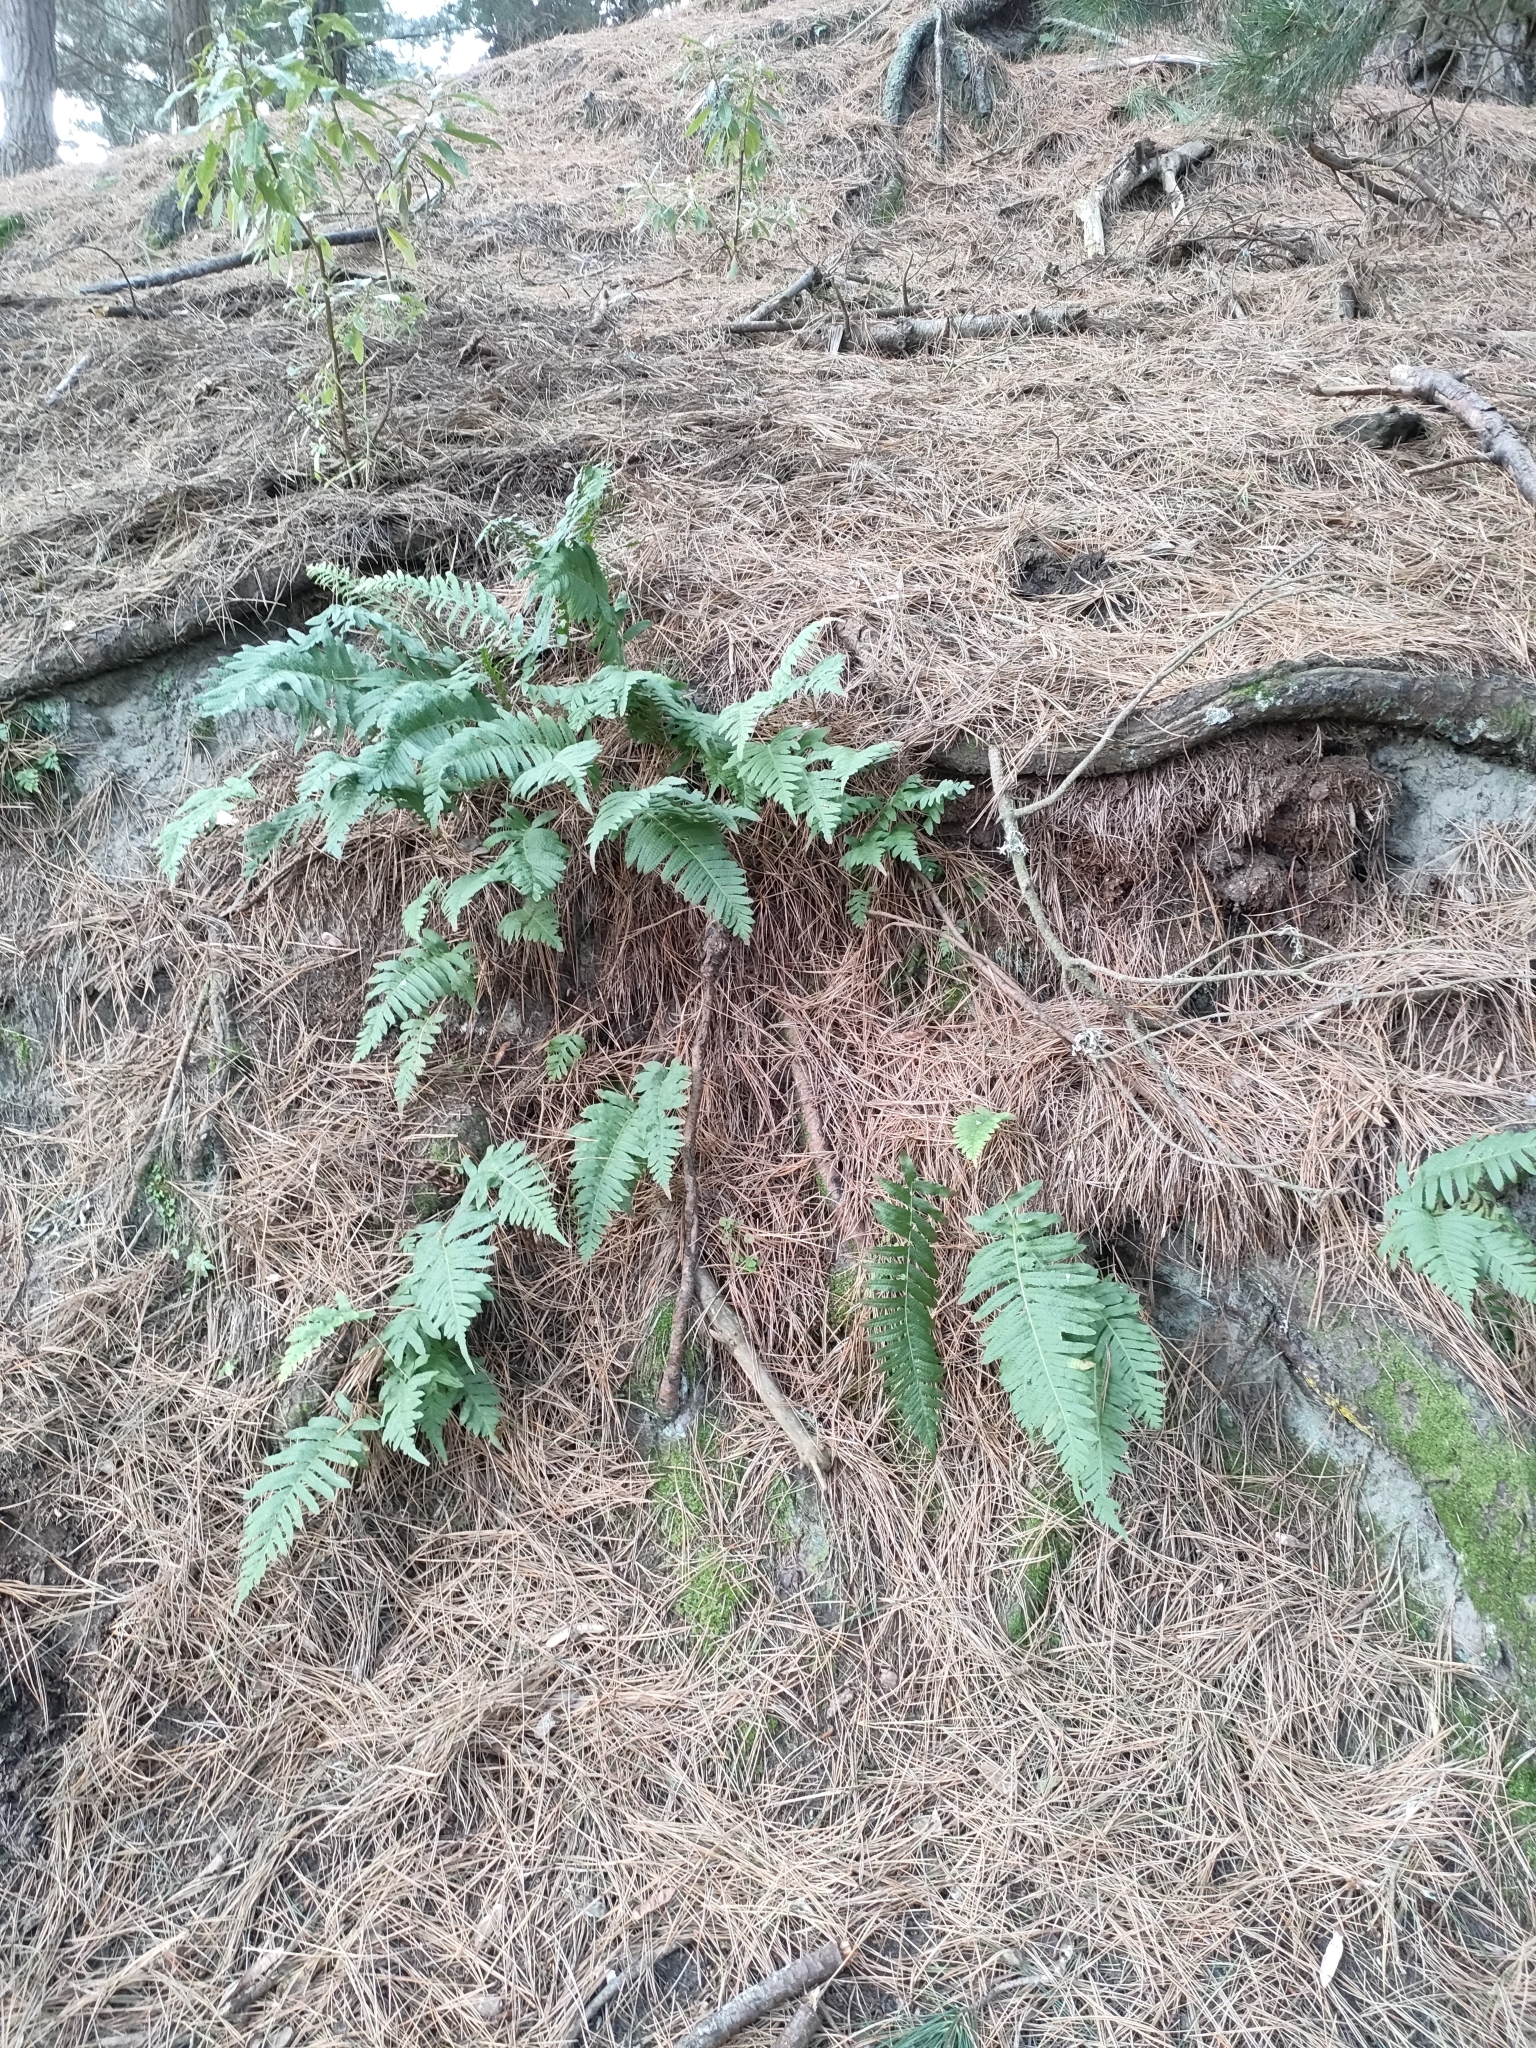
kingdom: Plantae
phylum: Tracheophyta
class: Polypodiopsida
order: Polypodiales
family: Polypodiaceae
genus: Polypodium
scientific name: Polypodium vulgare
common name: Common polypody
